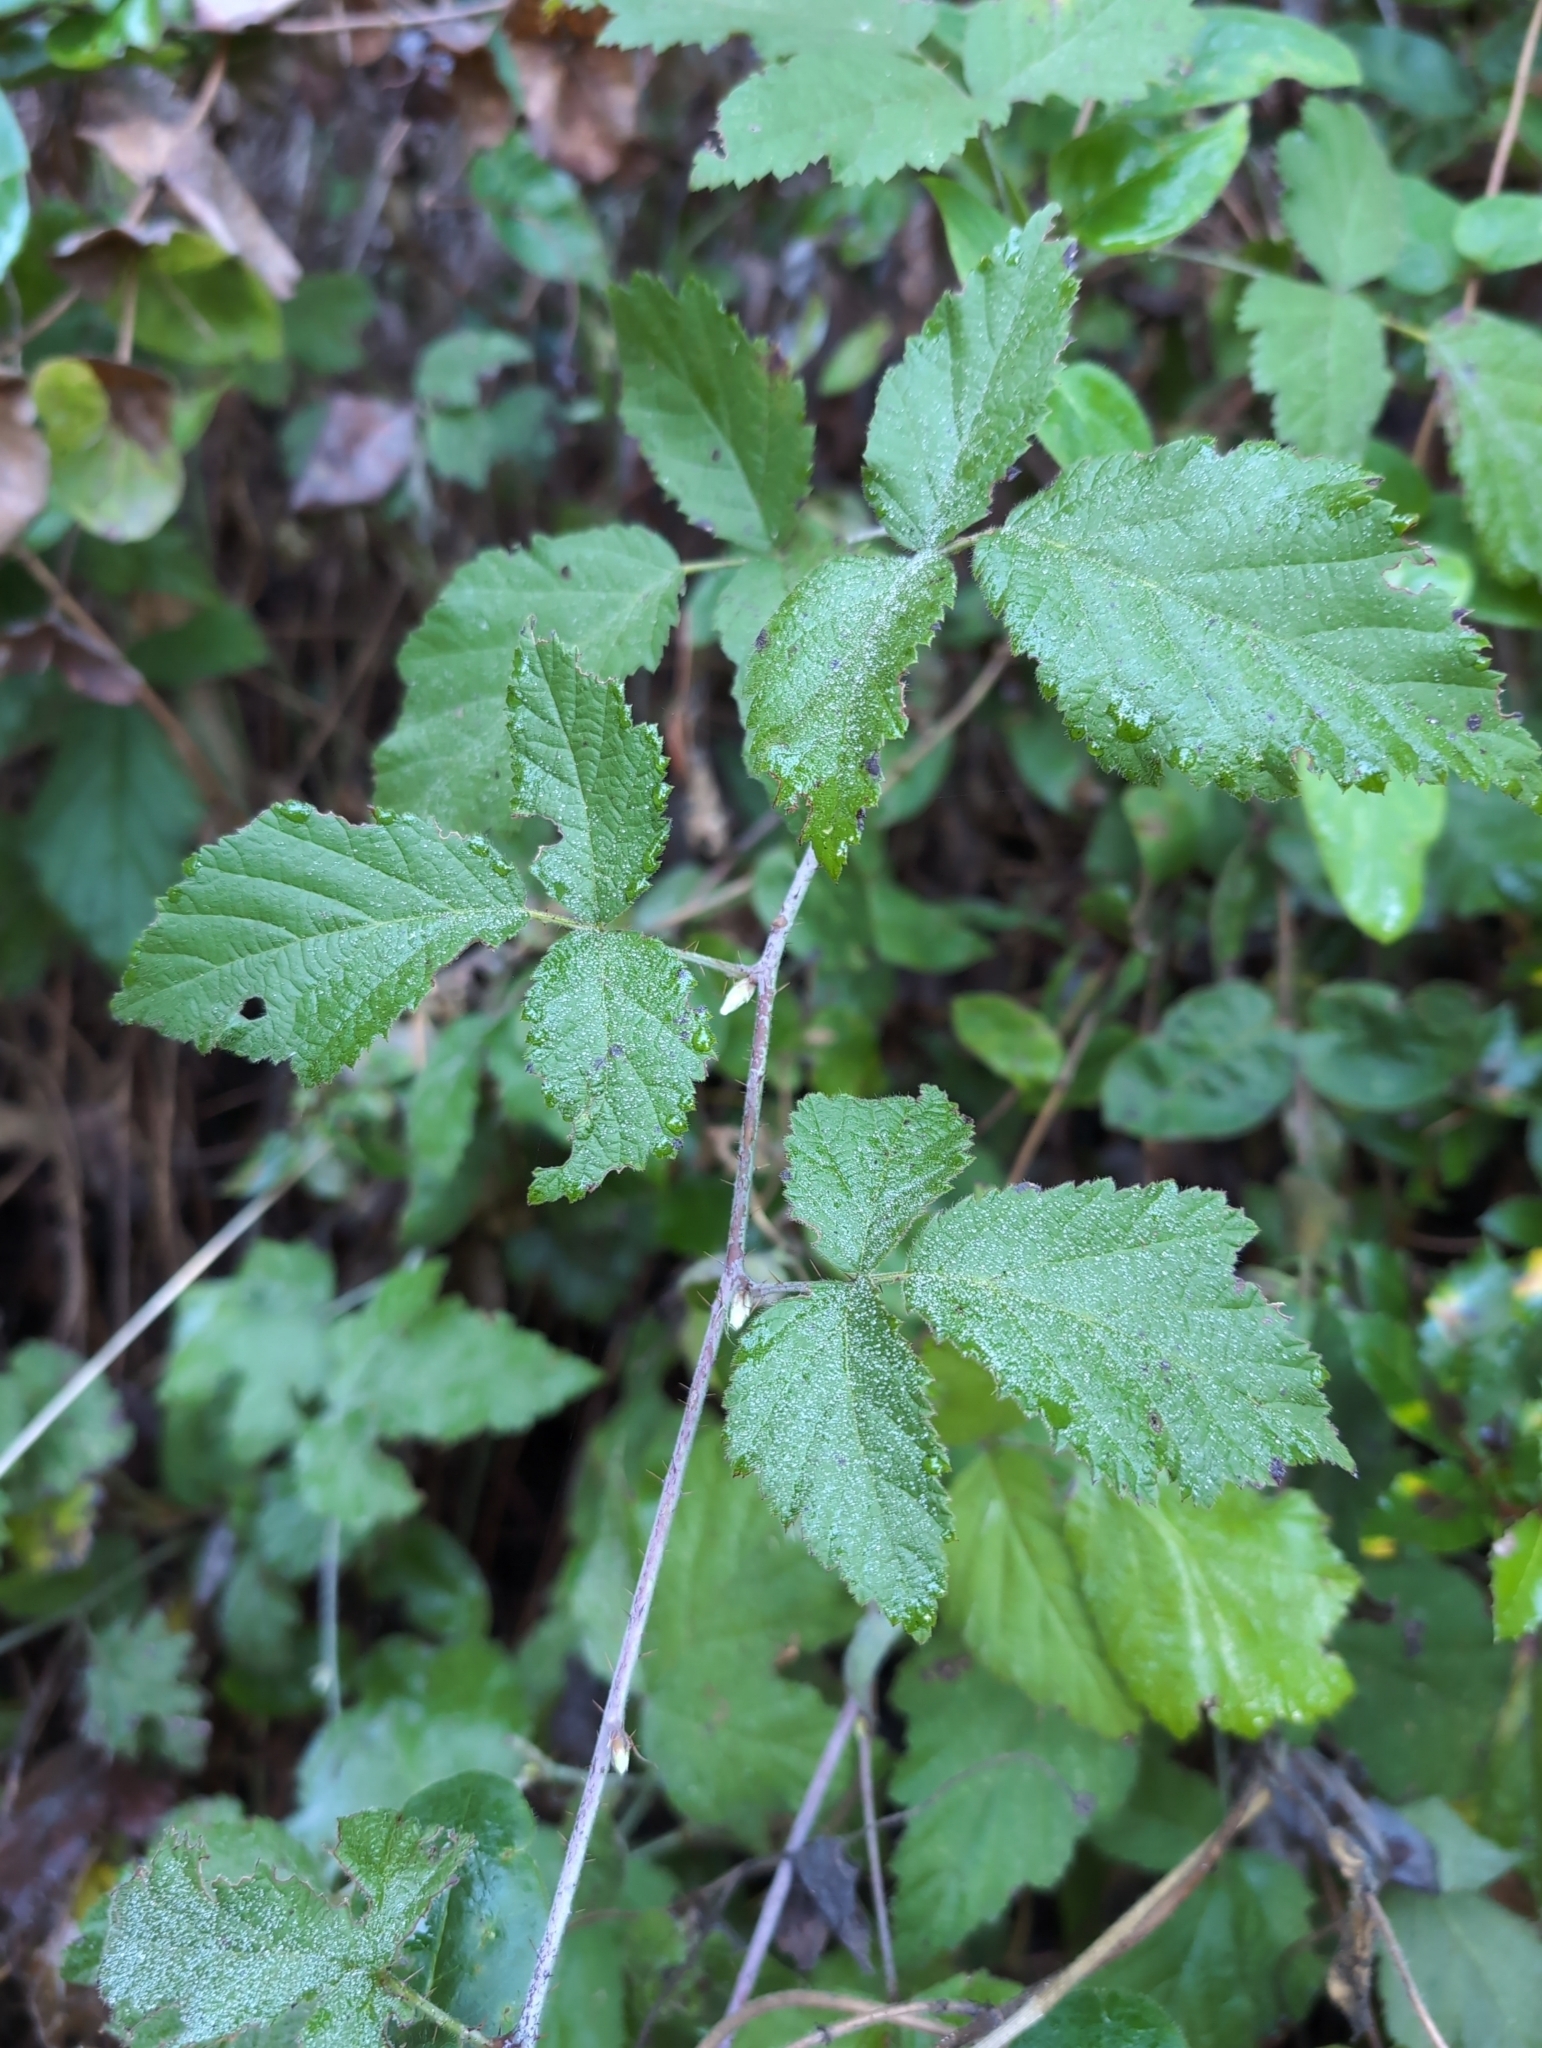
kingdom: Plantae
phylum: Tracheophyta
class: Magnoliopsida
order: Rosales
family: Rosaceae
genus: Rubus
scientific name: Rubus ursinus
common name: Pacific blackberry
